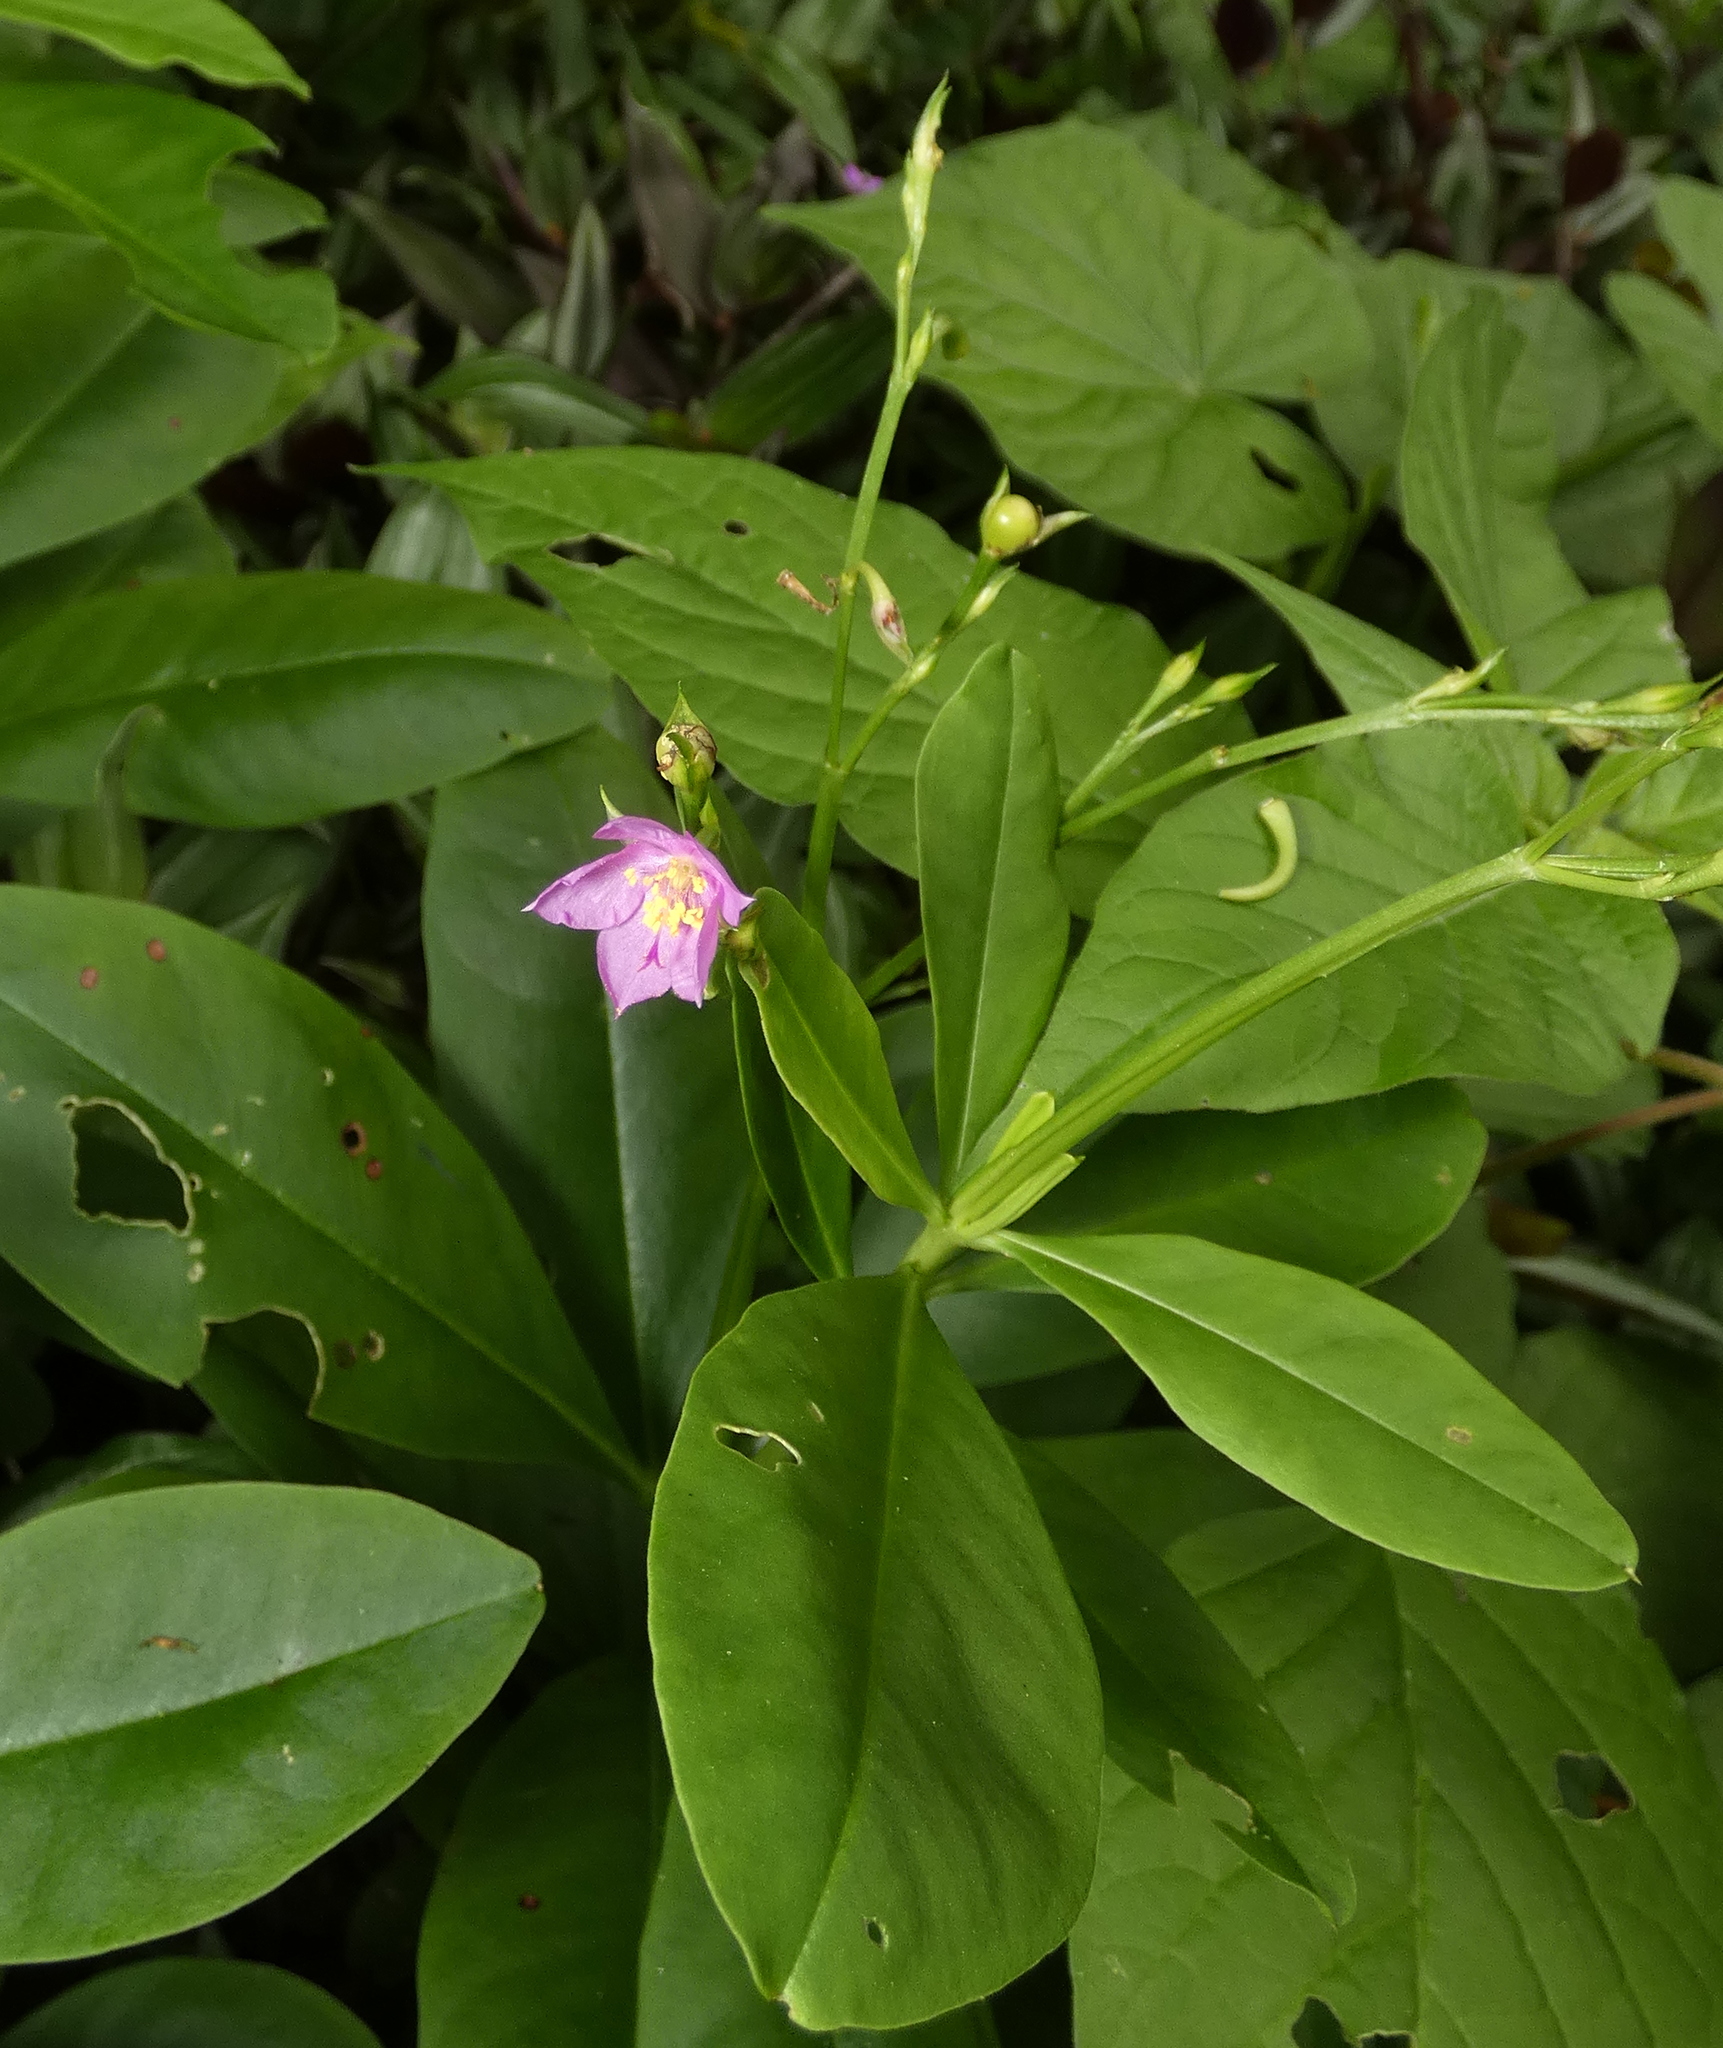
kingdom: Plantae
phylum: Tracheophyta
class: Magnoliopsida
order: Caryophyllales
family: Talinaceae
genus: Talinum
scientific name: Talinum fruticosum
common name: Verdolaga-francesa
